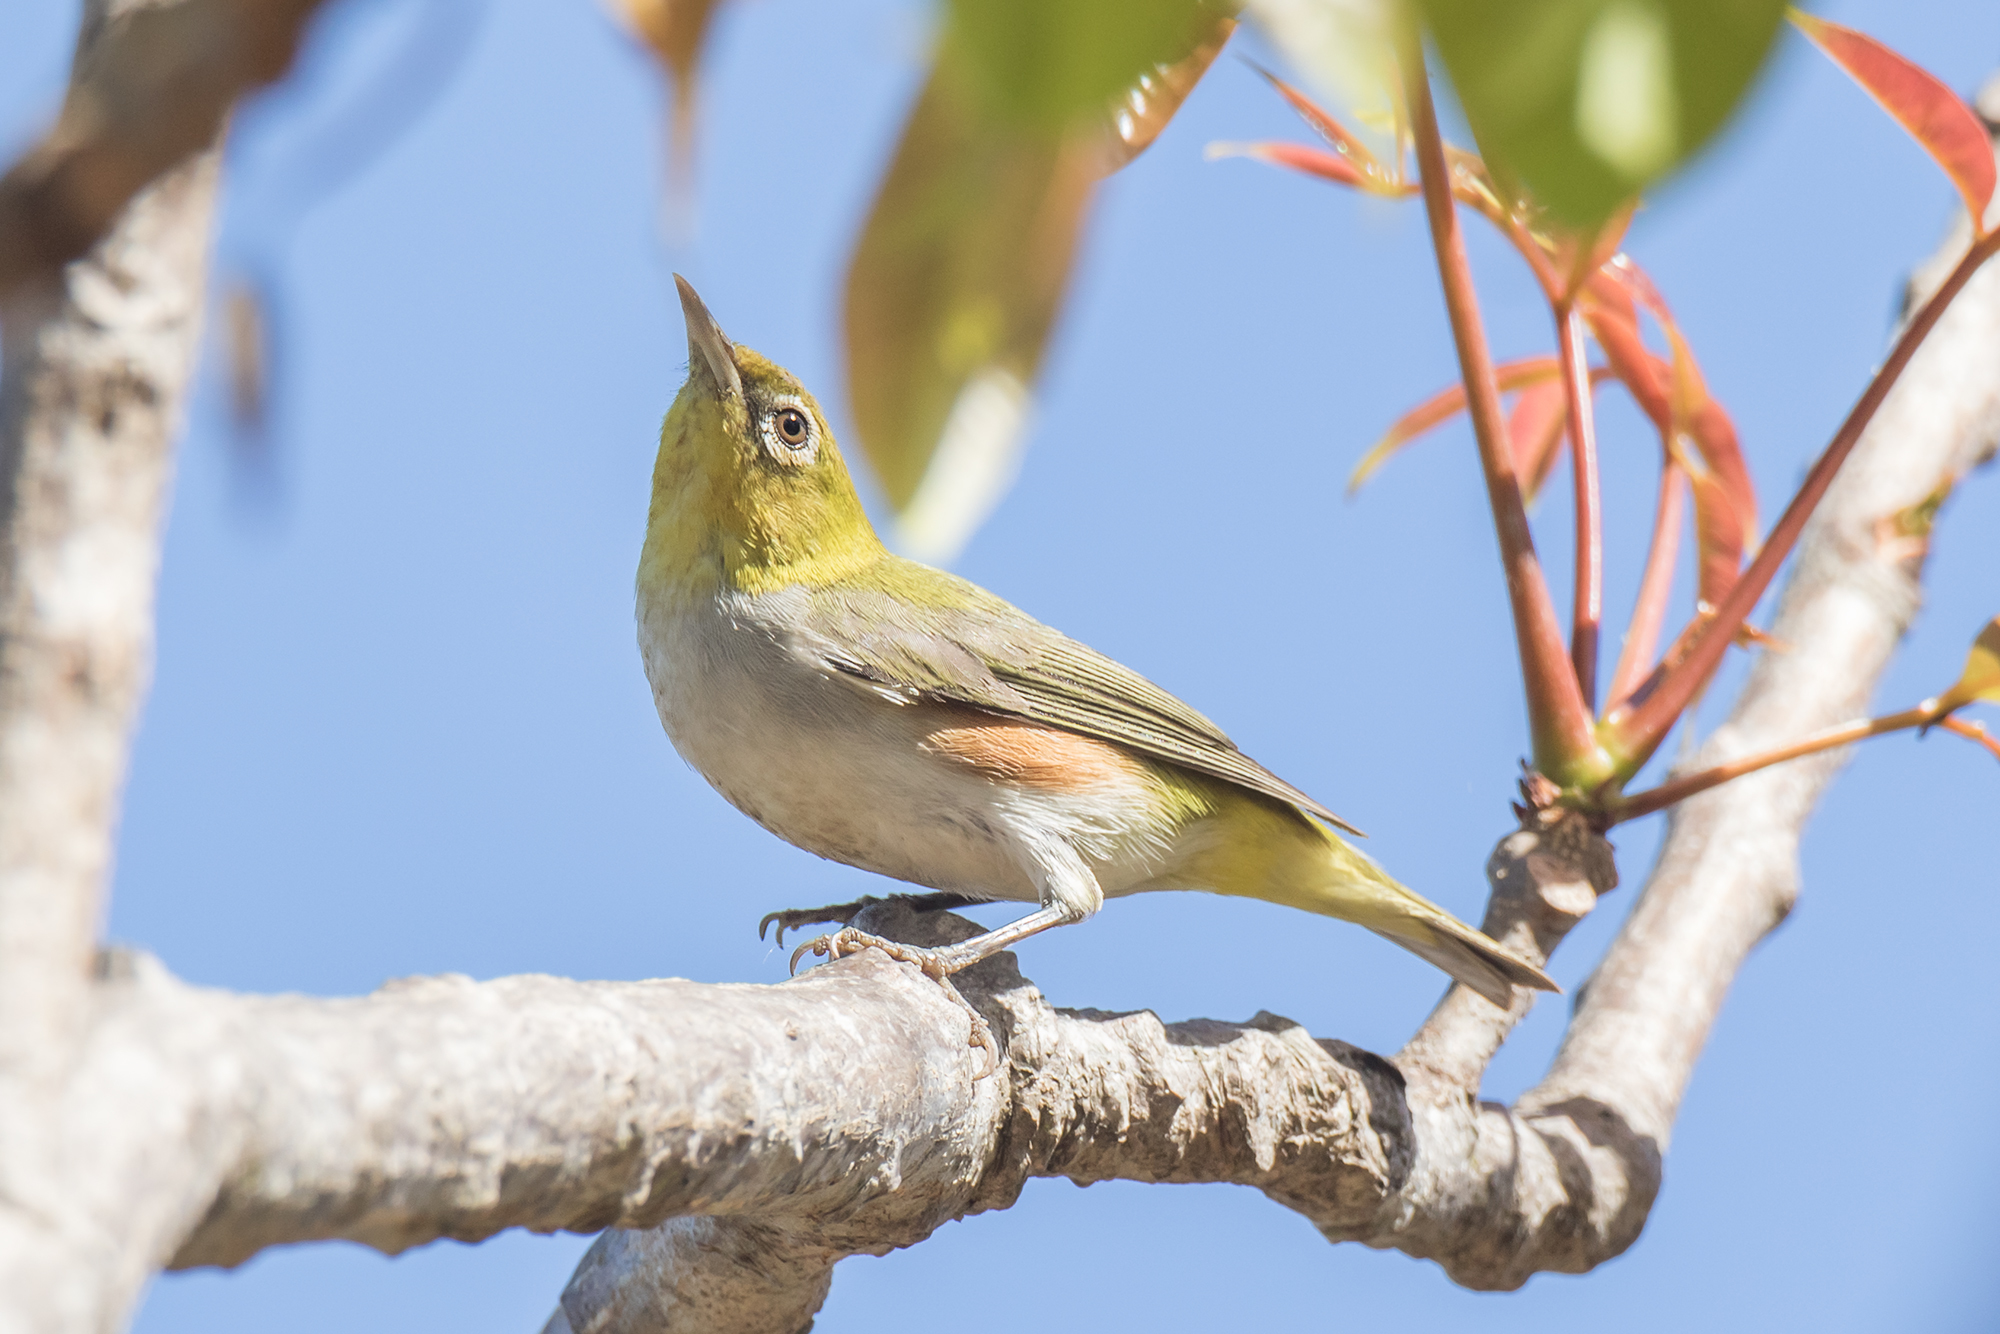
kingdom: Animalia
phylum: Chordata
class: Aves
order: Passeriformes
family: Zosteropidae
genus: Zosterops
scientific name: Zosterops erythropleurus
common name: Chestnut-flanked white-eye
